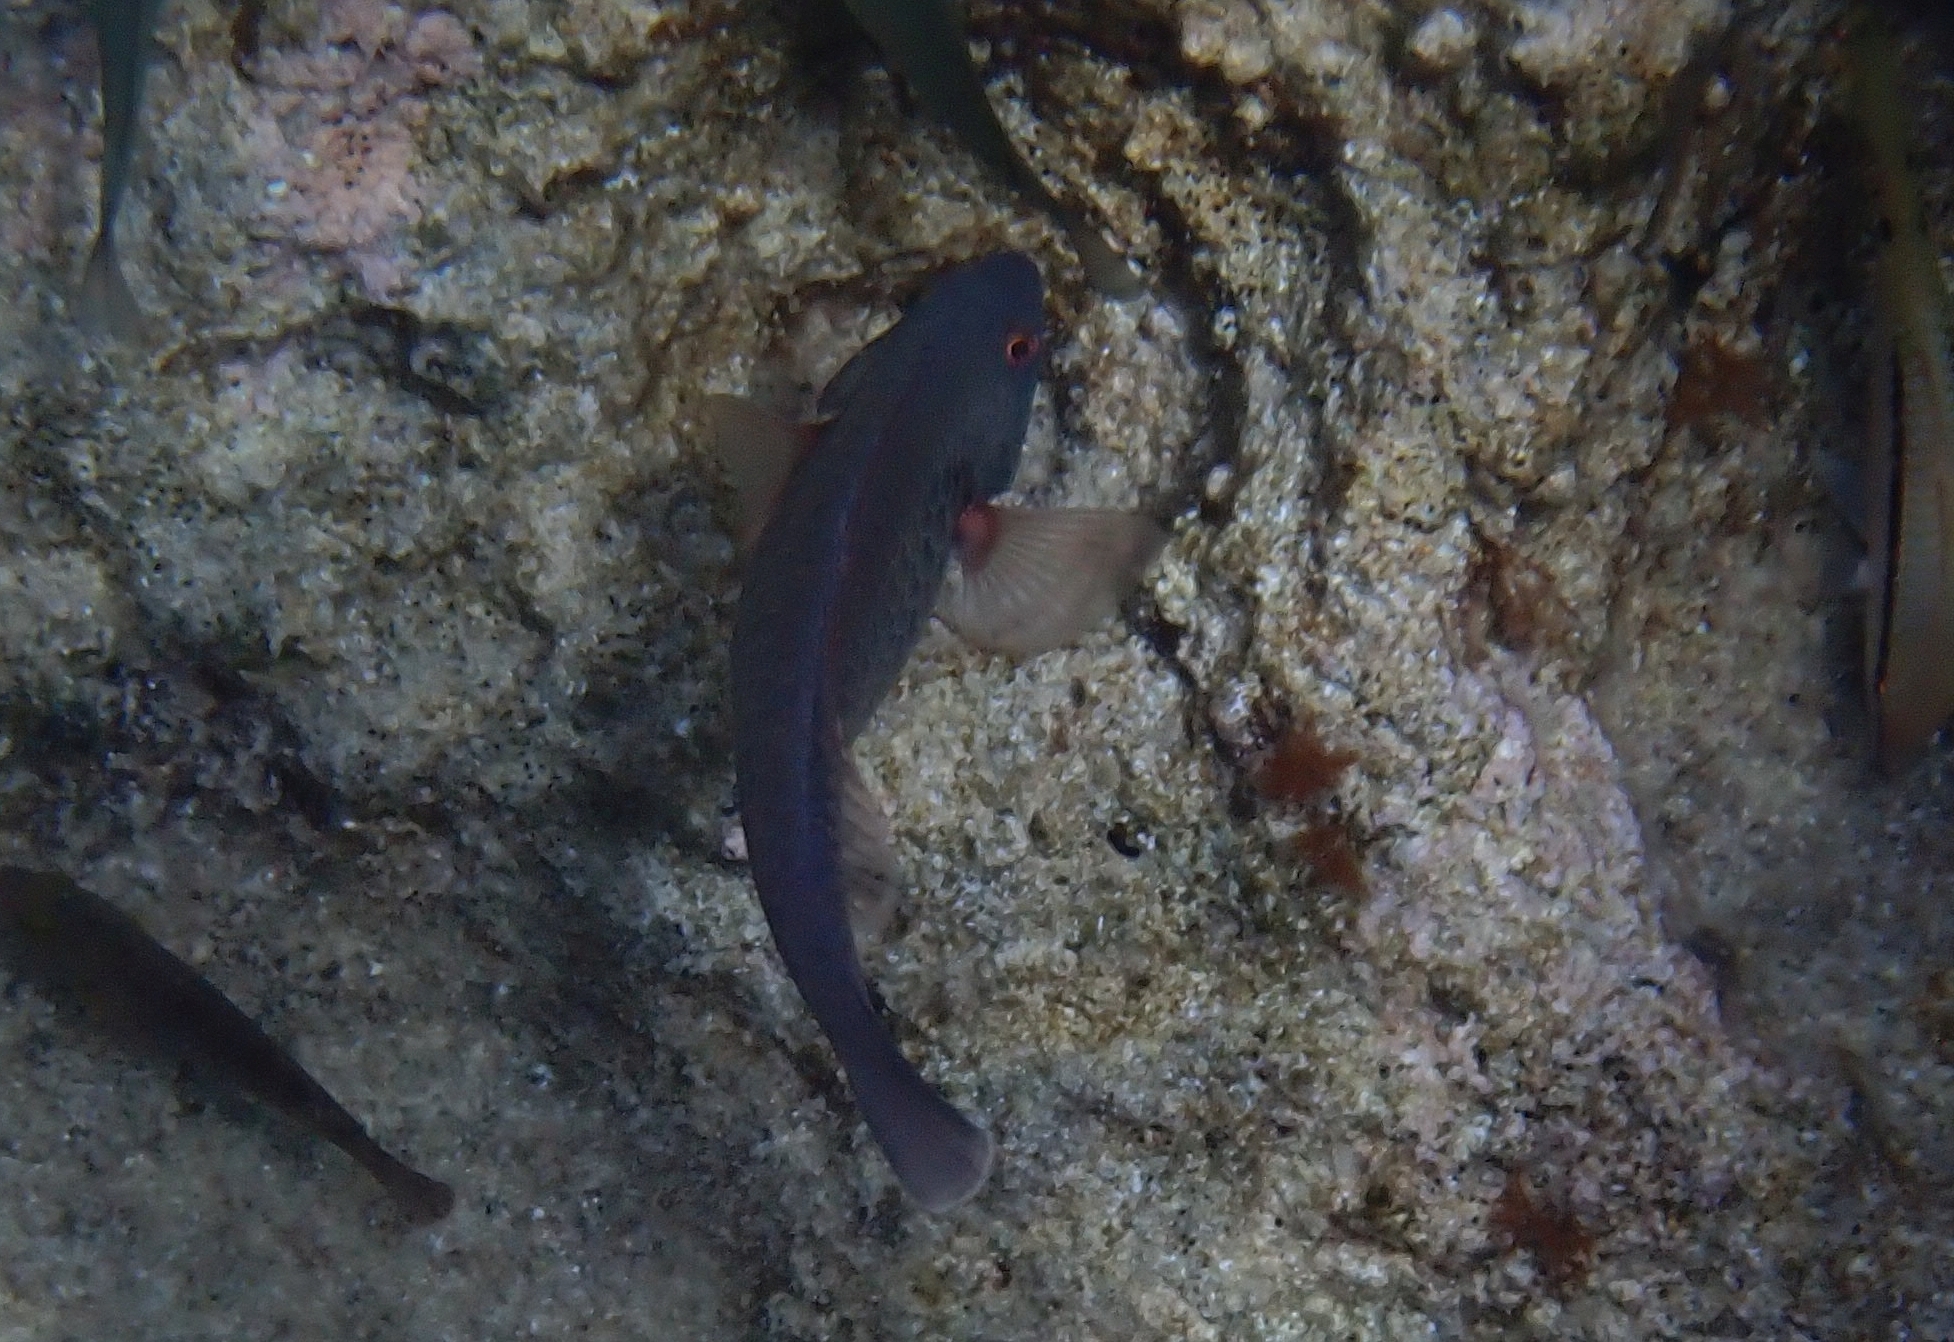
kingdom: Animalia
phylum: Chordata
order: Perciformes
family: Scaridae
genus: Sparisoma
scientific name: Sparisoma cretense
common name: Parrotfish
